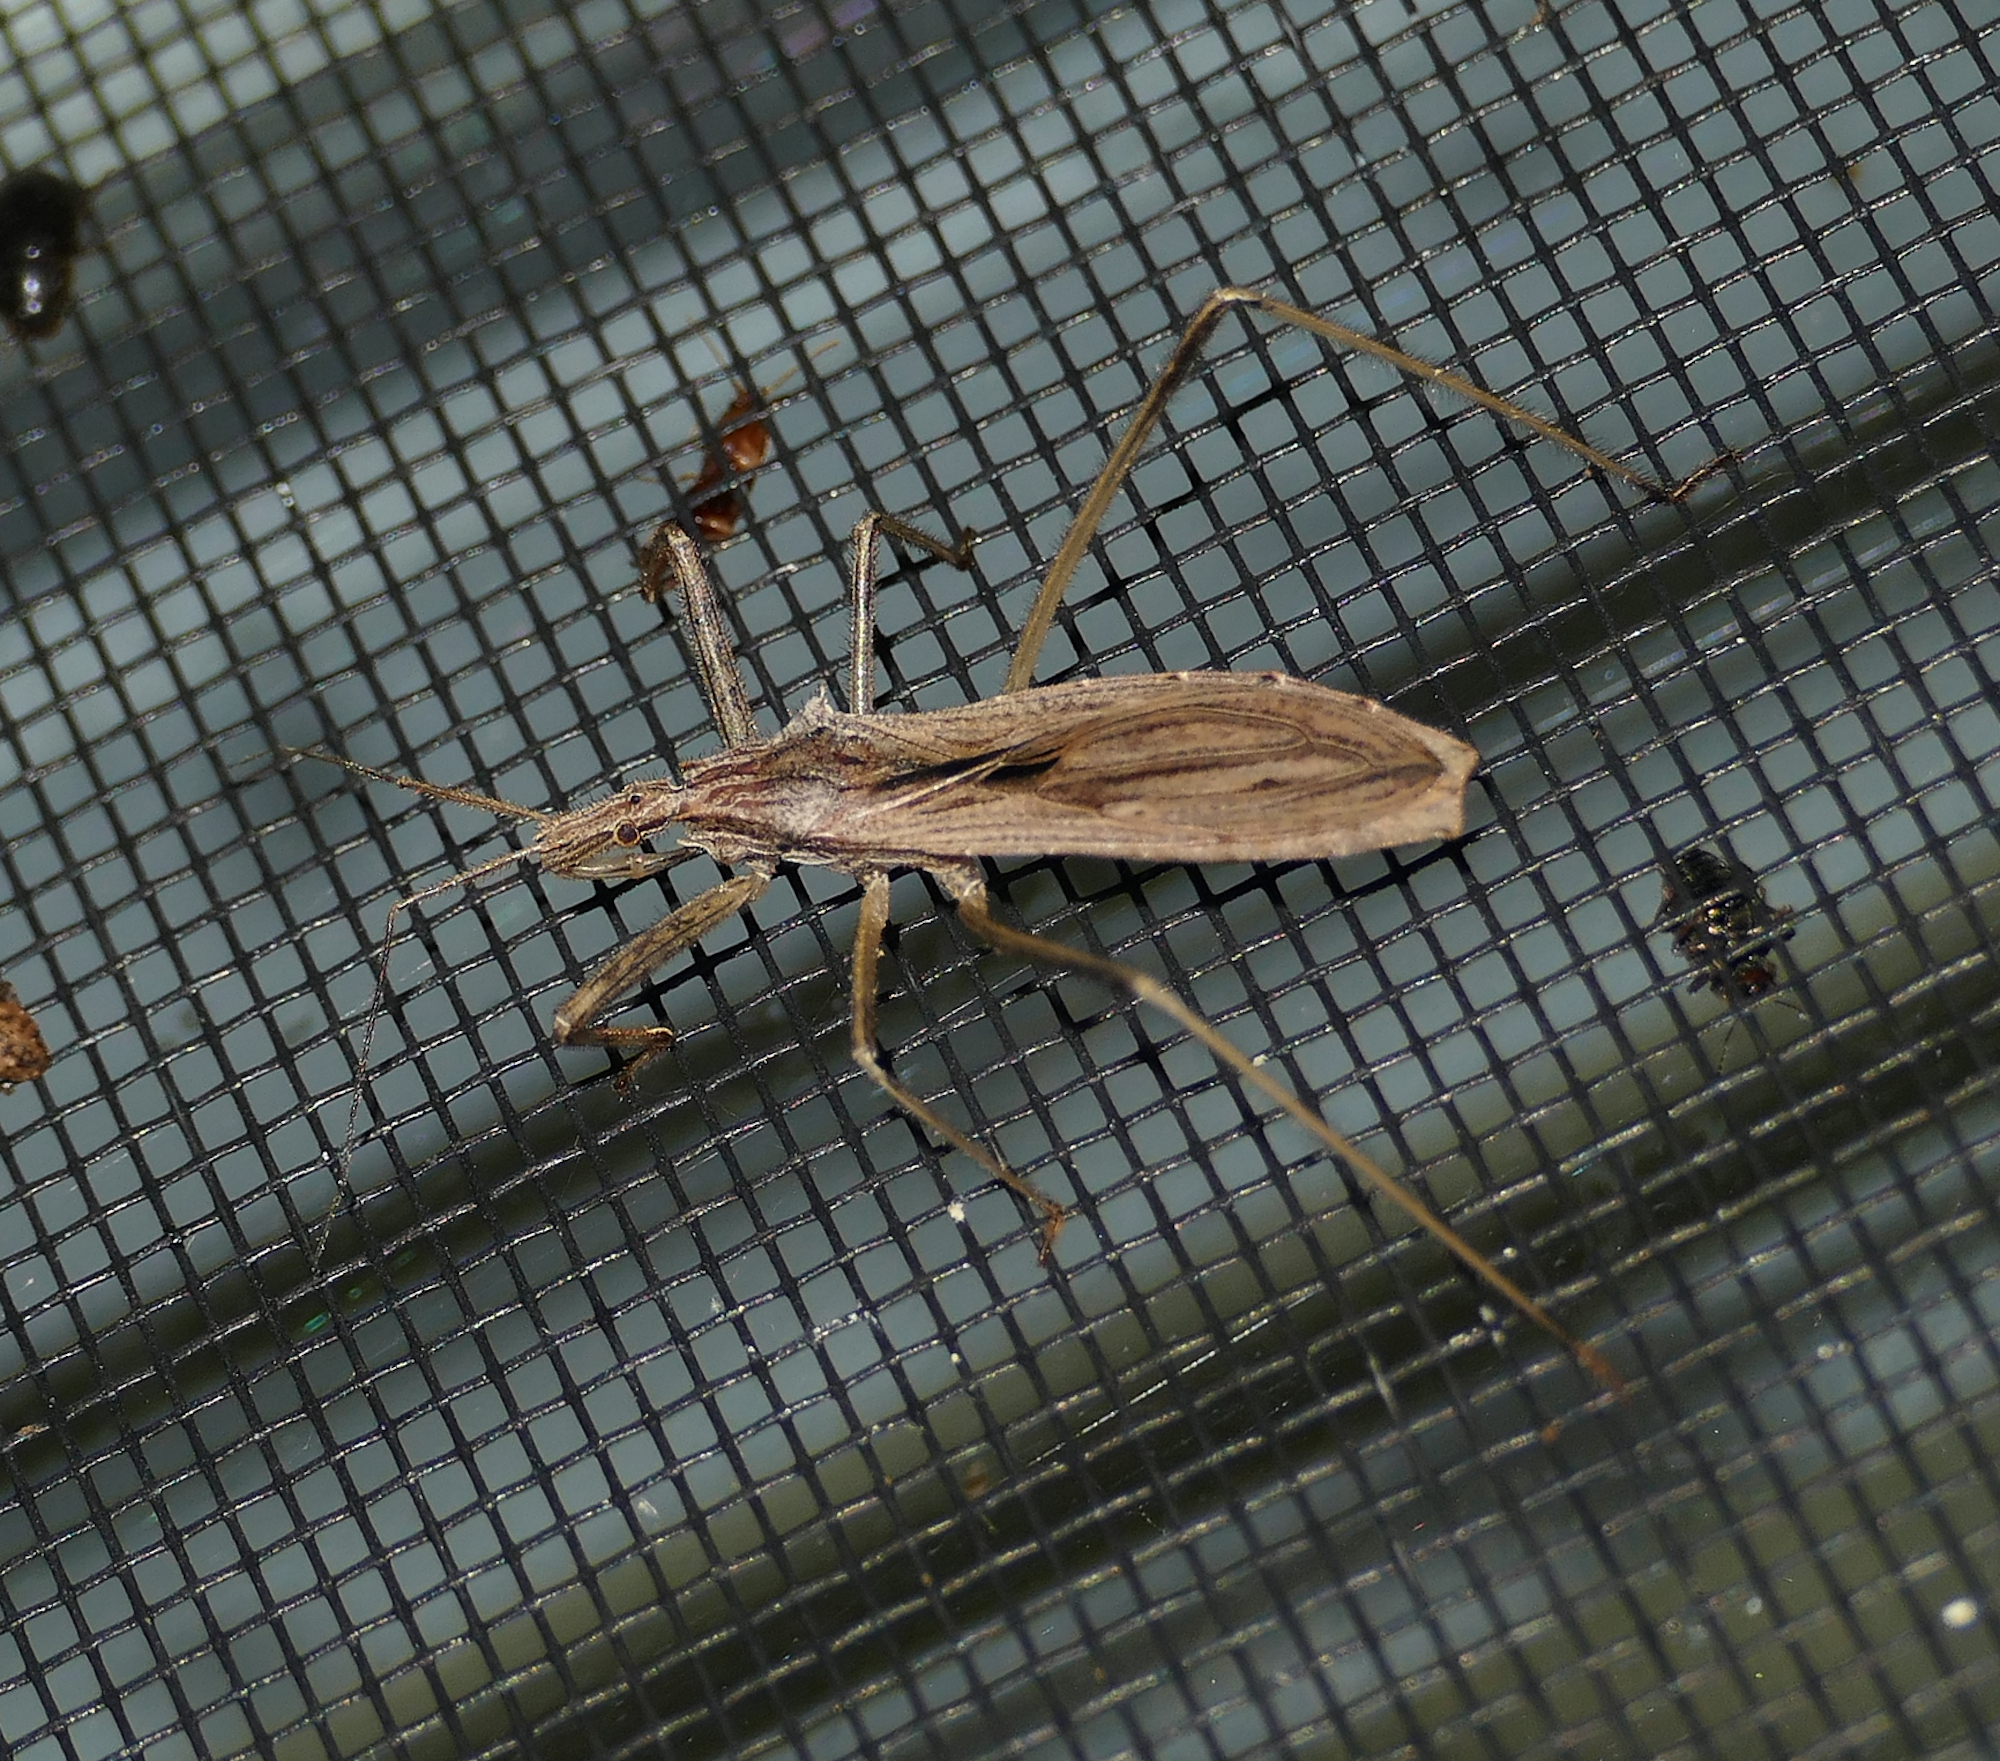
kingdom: Animalia
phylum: Arthropoda
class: Insecta
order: Hemiptera
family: Reduviidae
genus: Stenopoda
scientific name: Stenopoda spinulosa
